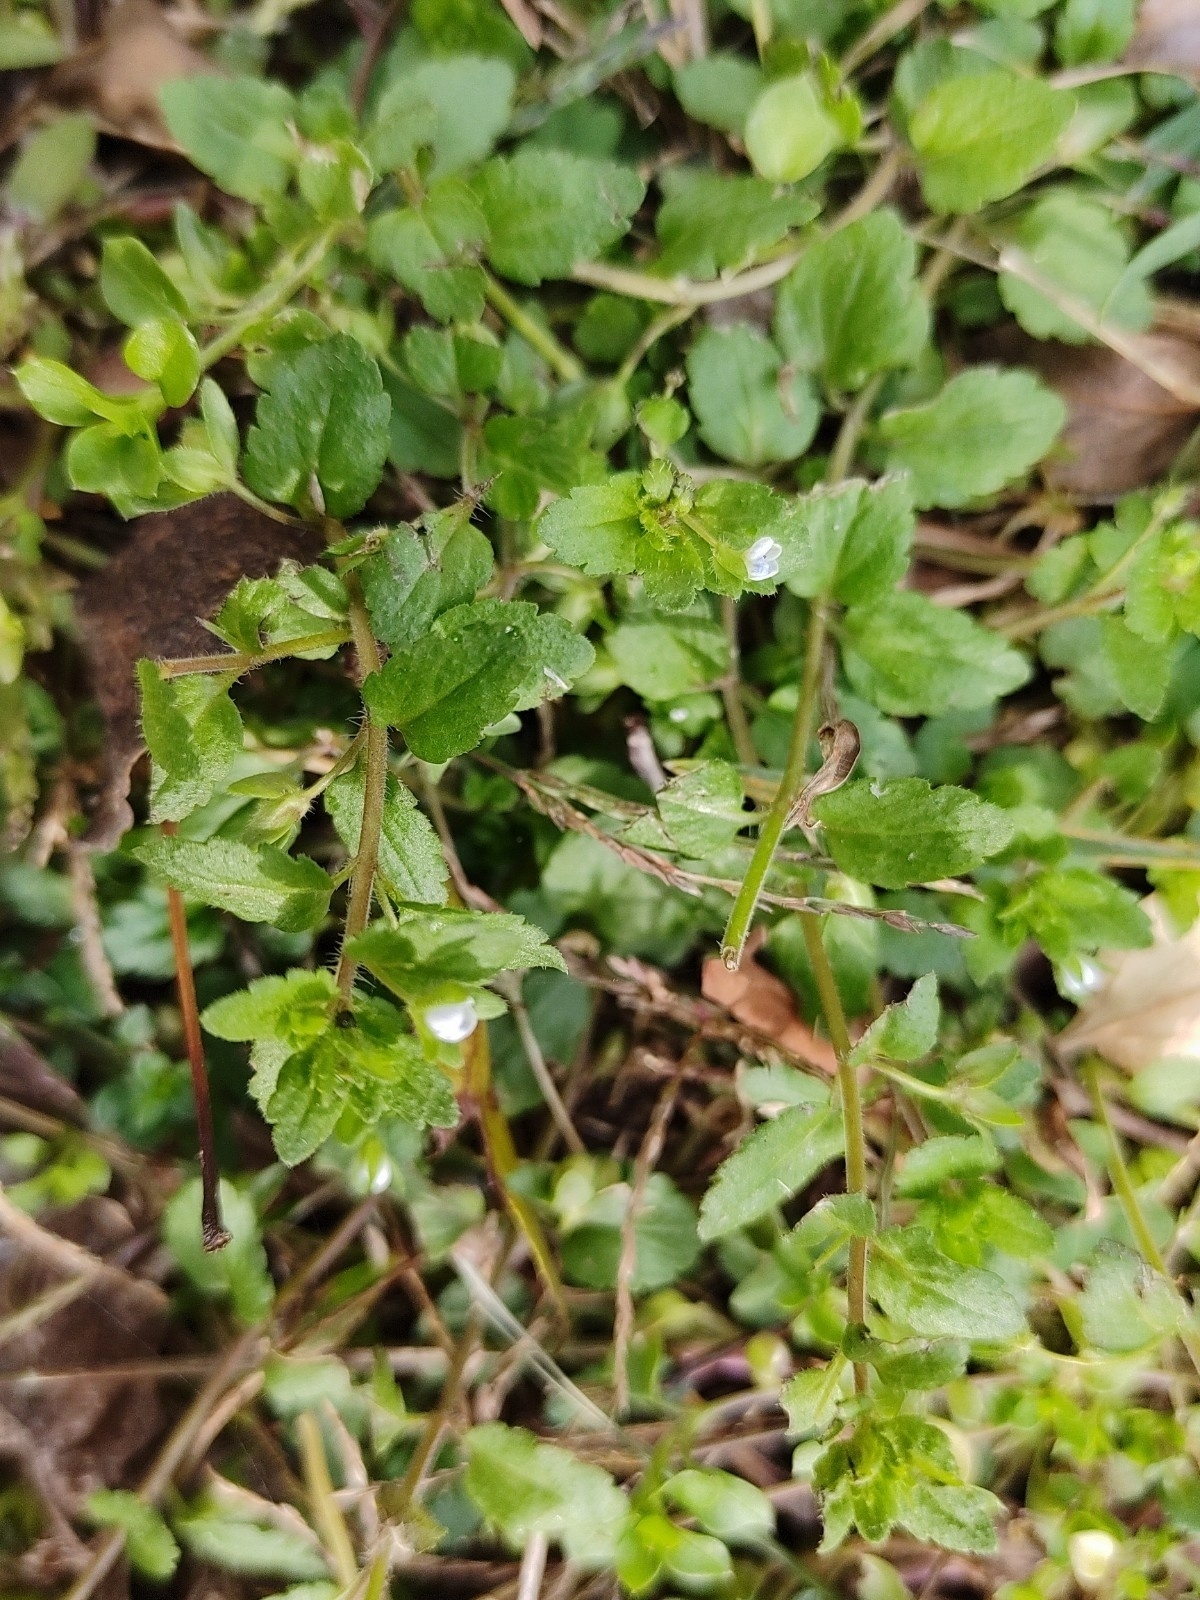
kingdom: Plantae
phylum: Tracheophyta
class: Magnoliopsida
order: Lamiales
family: Plantaginaceae
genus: Veronica
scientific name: Veronica persica
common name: Common field-speedwell
